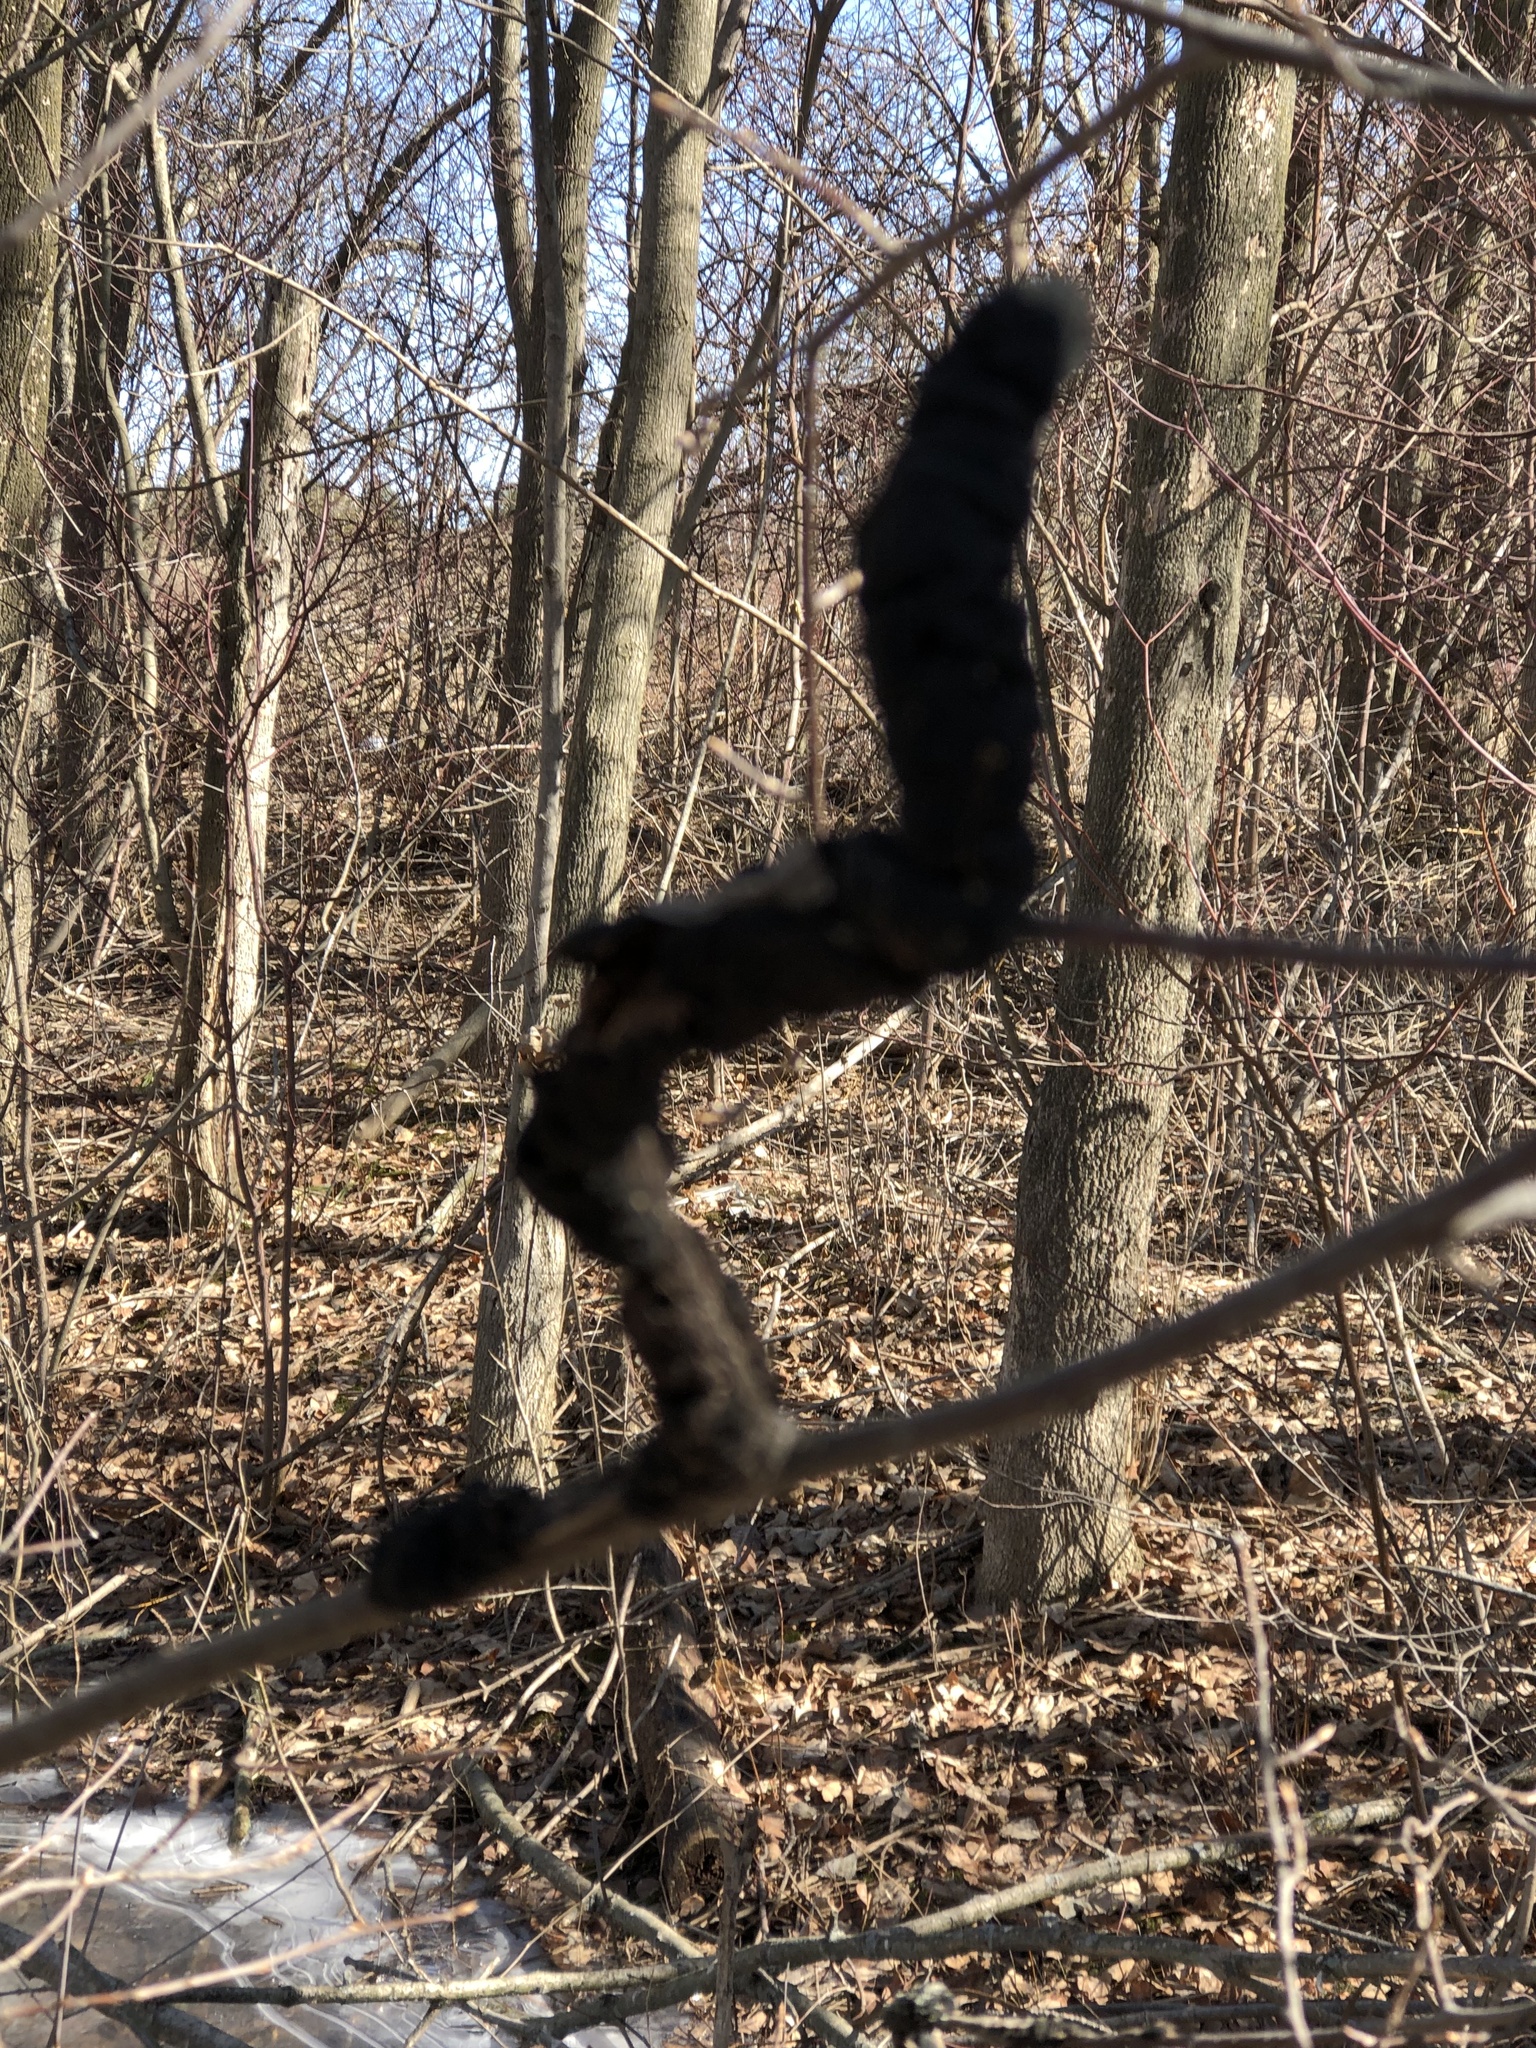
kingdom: Fungi
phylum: Ascomycota
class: Dothideomycetes
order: Venturiales
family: Venturiaceae
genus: Apiosporina
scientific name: Apiosporina morbosa
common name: Black knot
